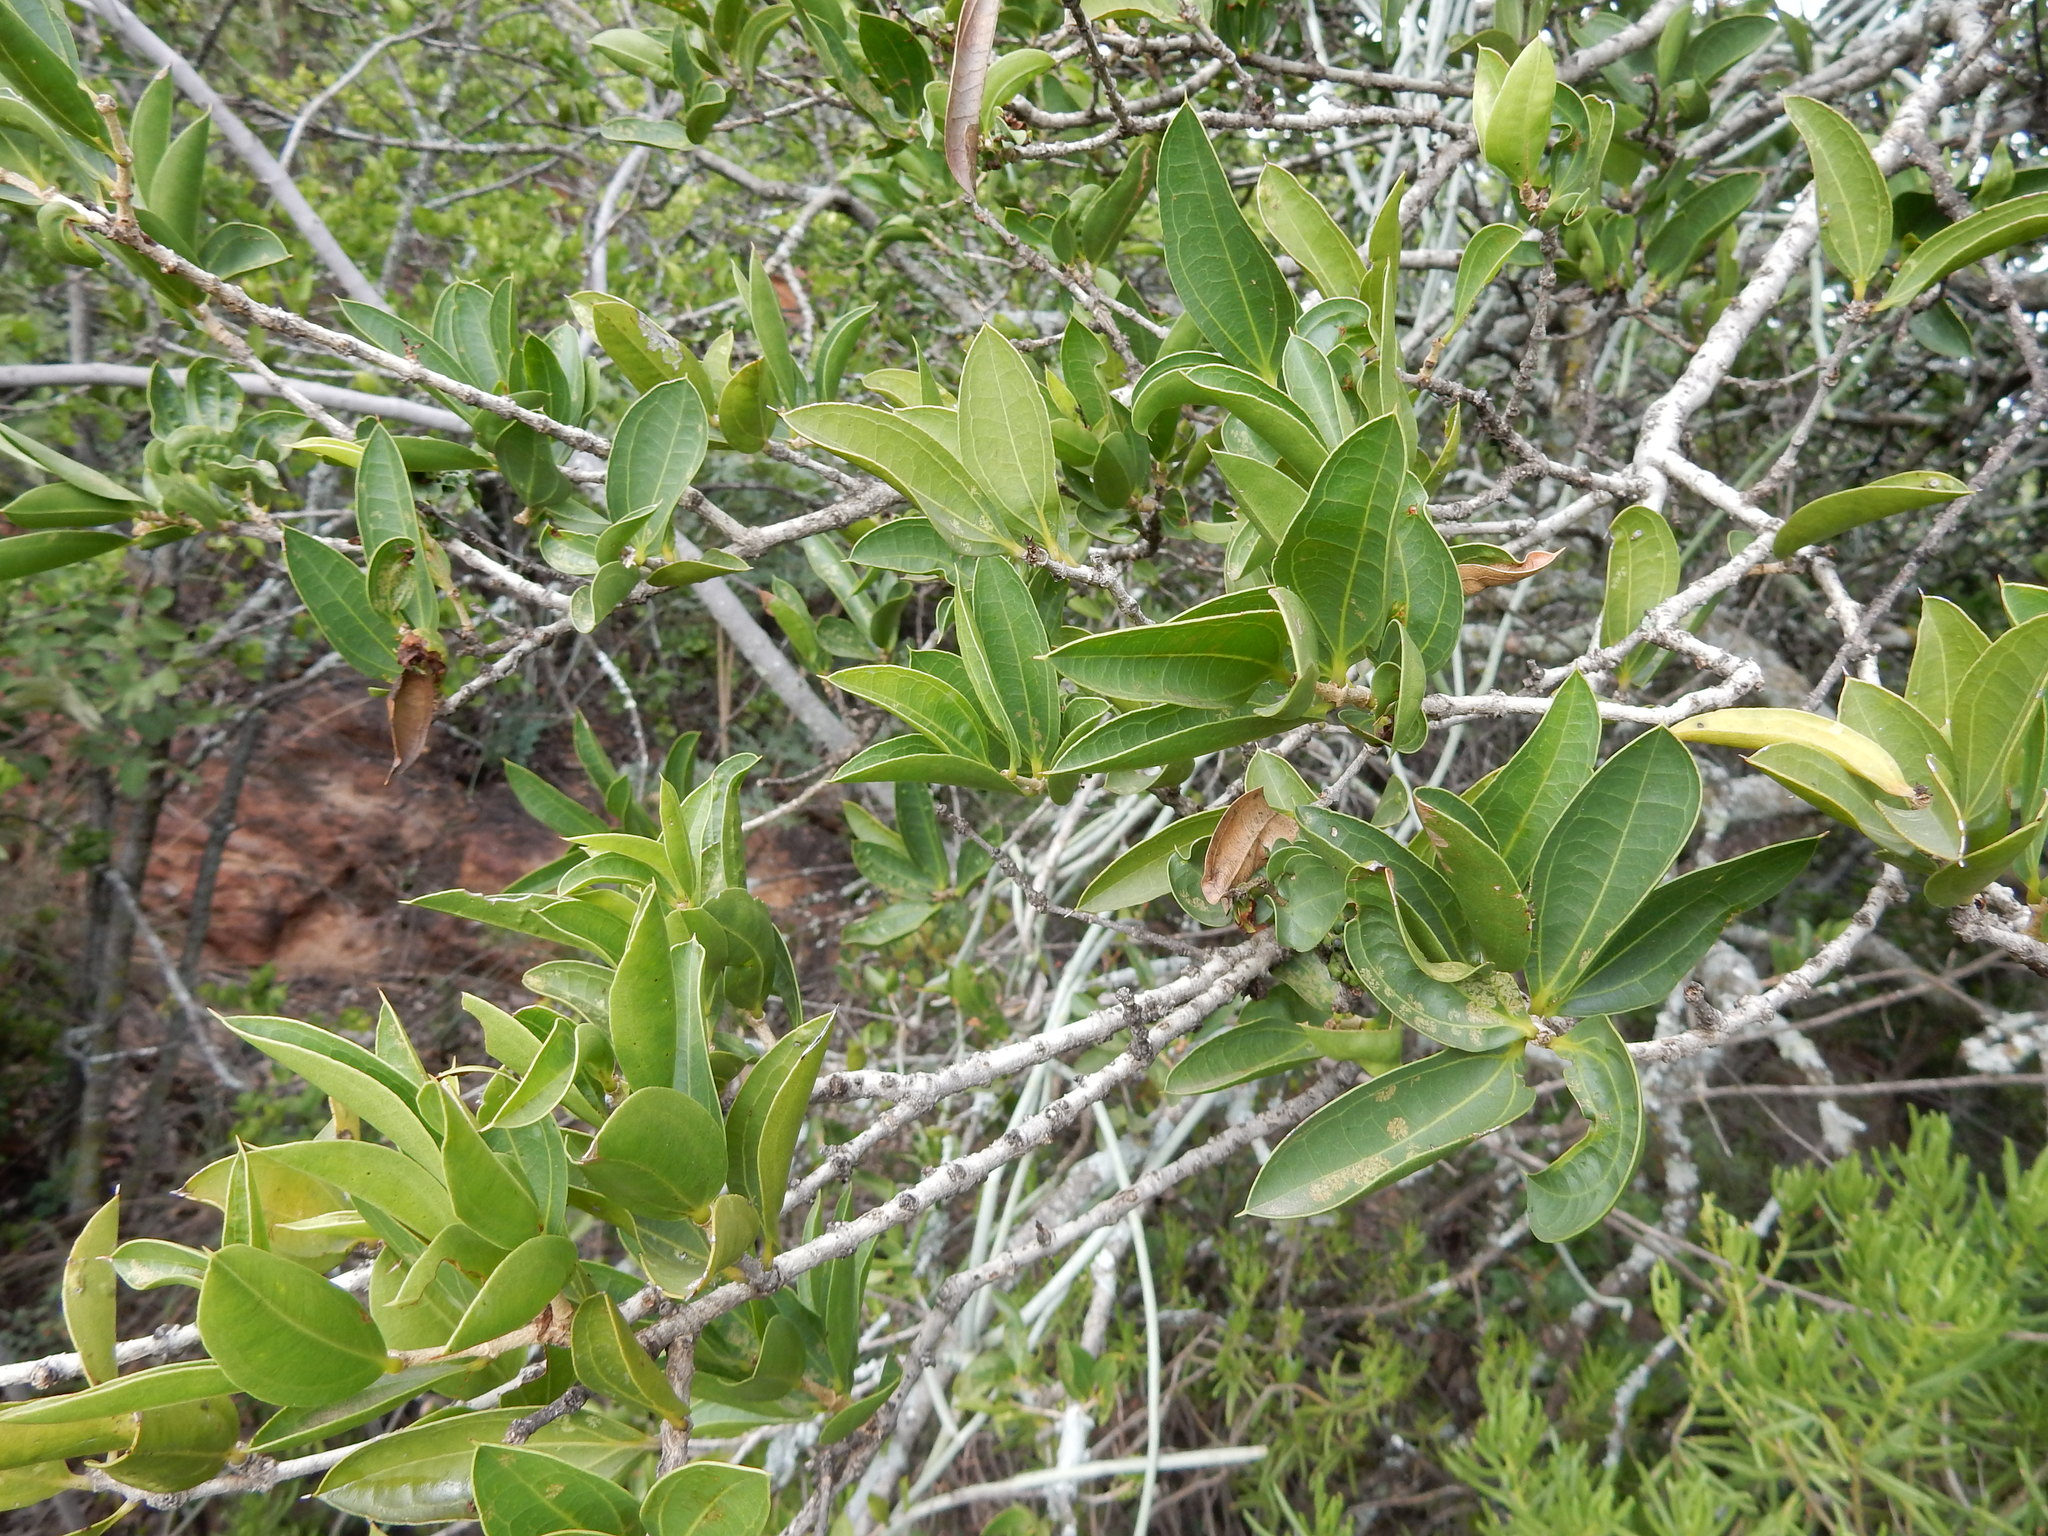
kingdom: Plantae
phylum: Tracheophyta
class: Magnoliopsida
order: Gentianales
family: Loganiaceae
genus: Strychnos
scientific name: Strychnos pungens
